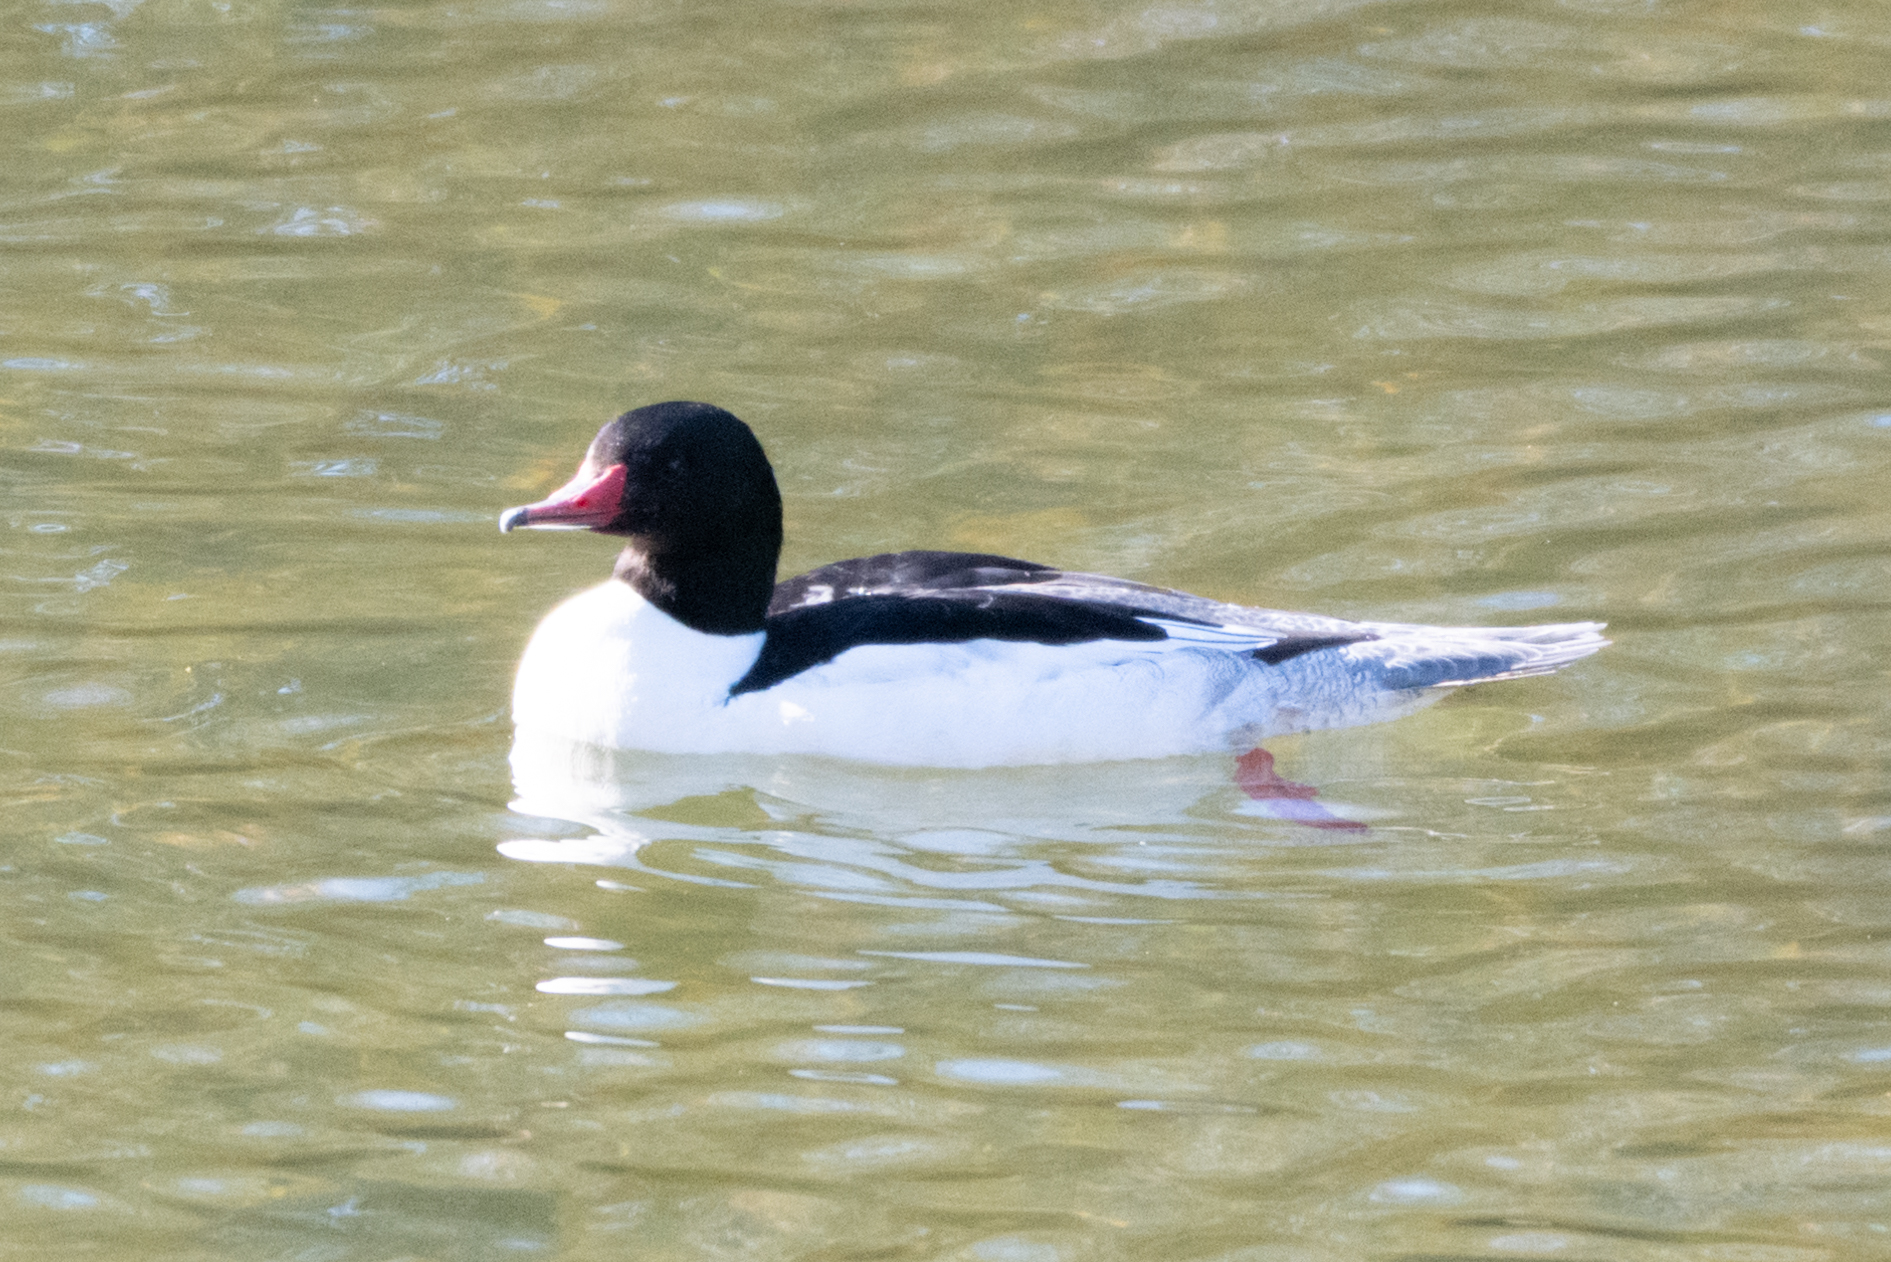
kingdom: Animalia
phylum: Chordata
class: Aves
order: Anseriformes
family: Anatidae
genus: Mergus
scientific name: Mergus merganser
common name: Common merganser
